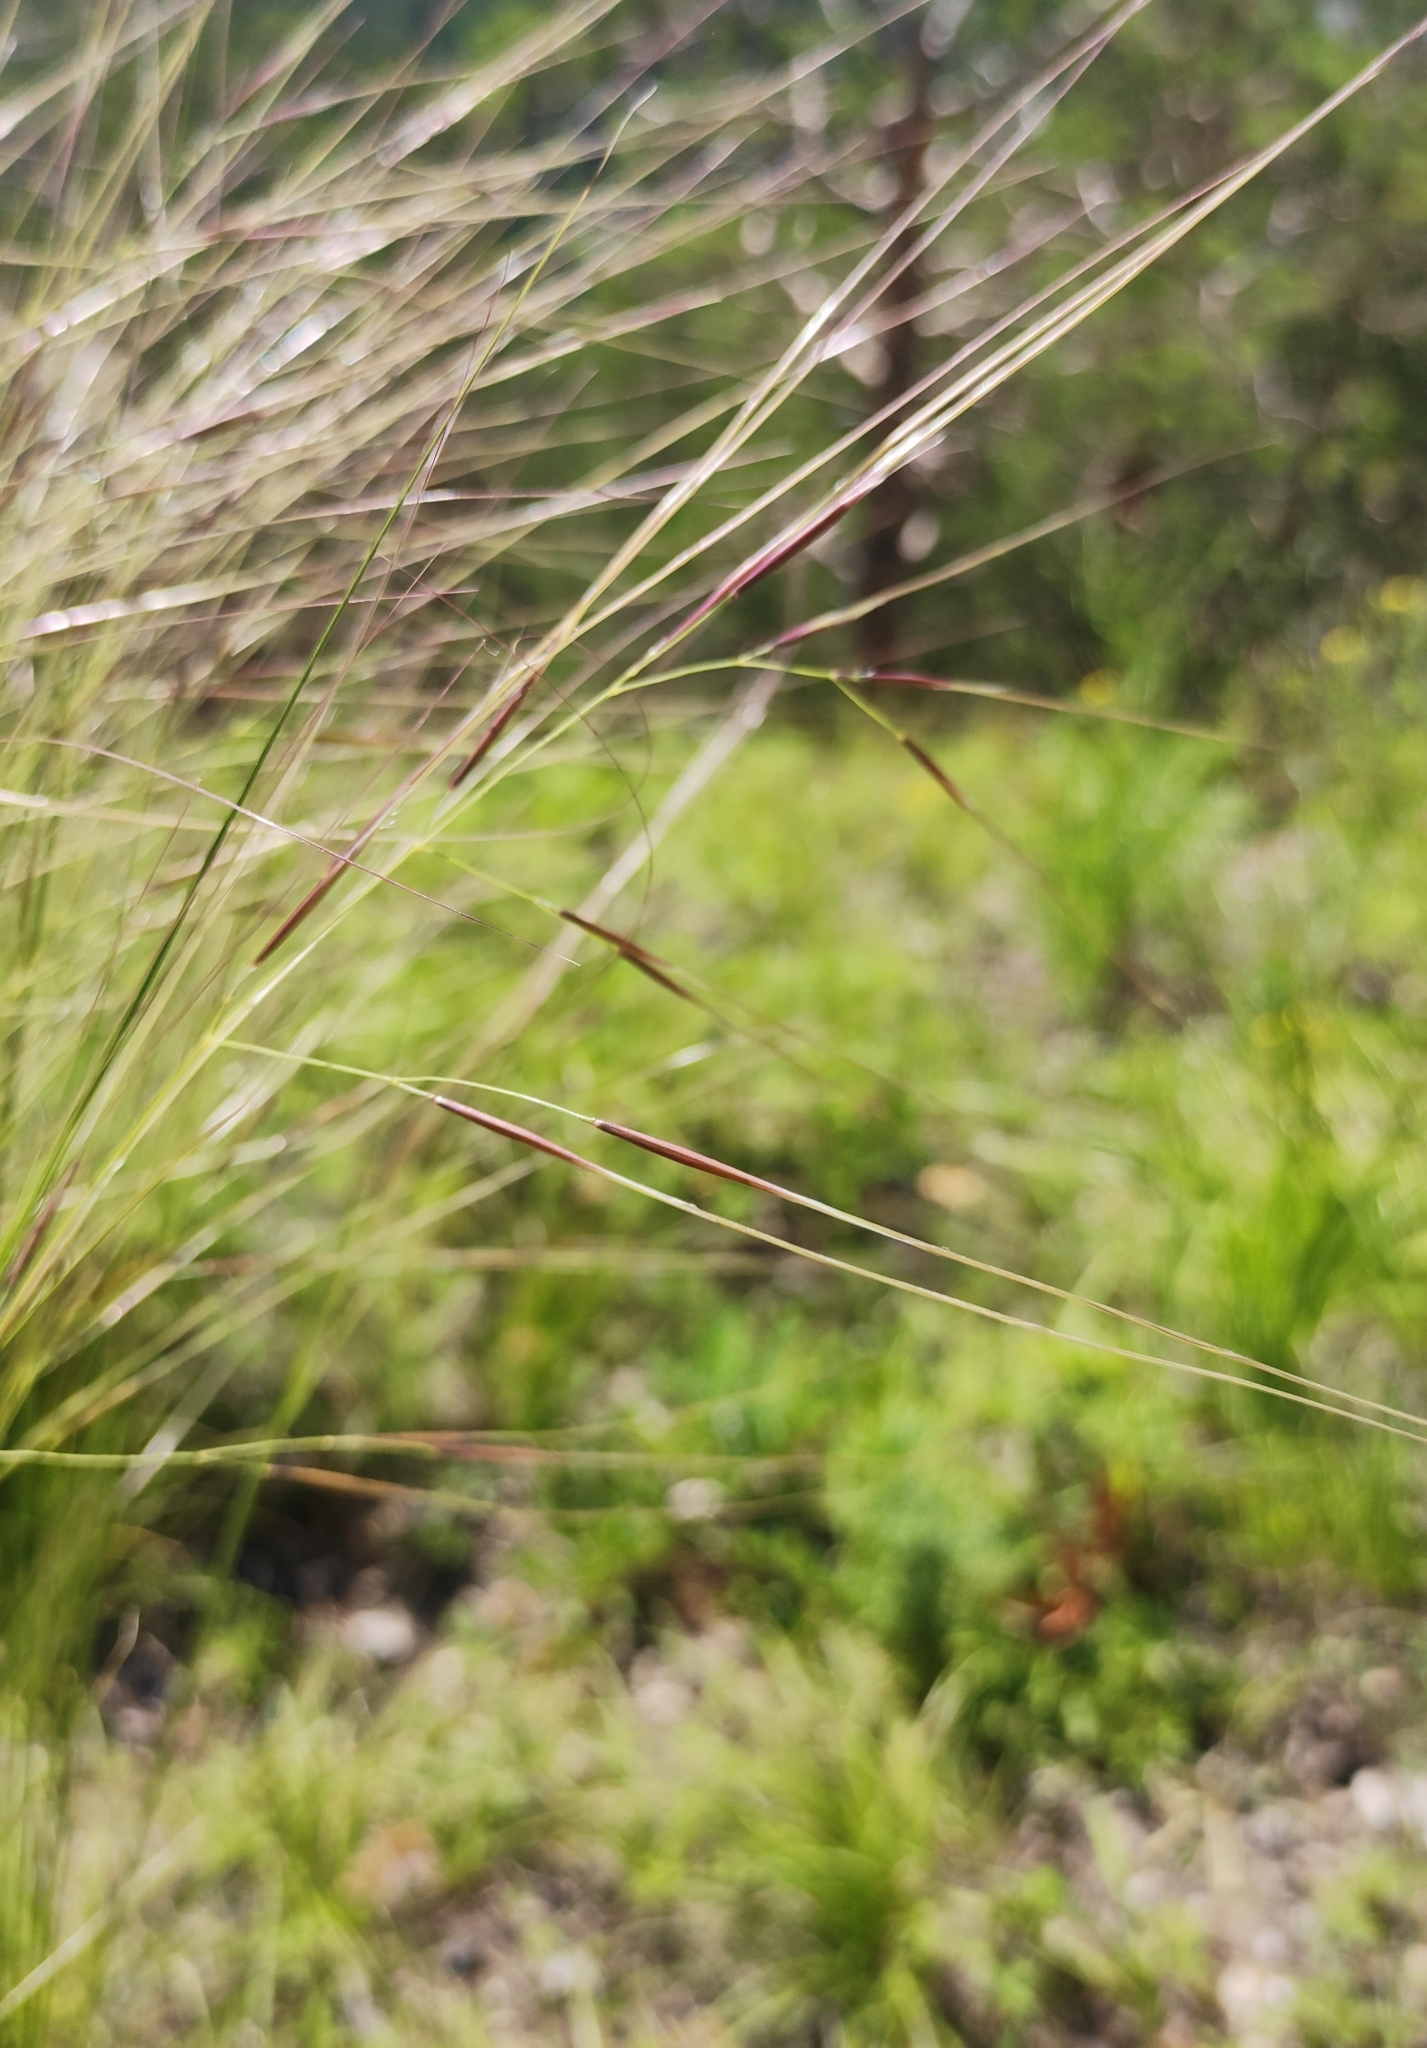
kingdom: Plantae
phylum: Tracheophyta
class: Liliopsida
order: Poales
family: Poaceae
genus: Stipa
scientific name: Stipa capillata
